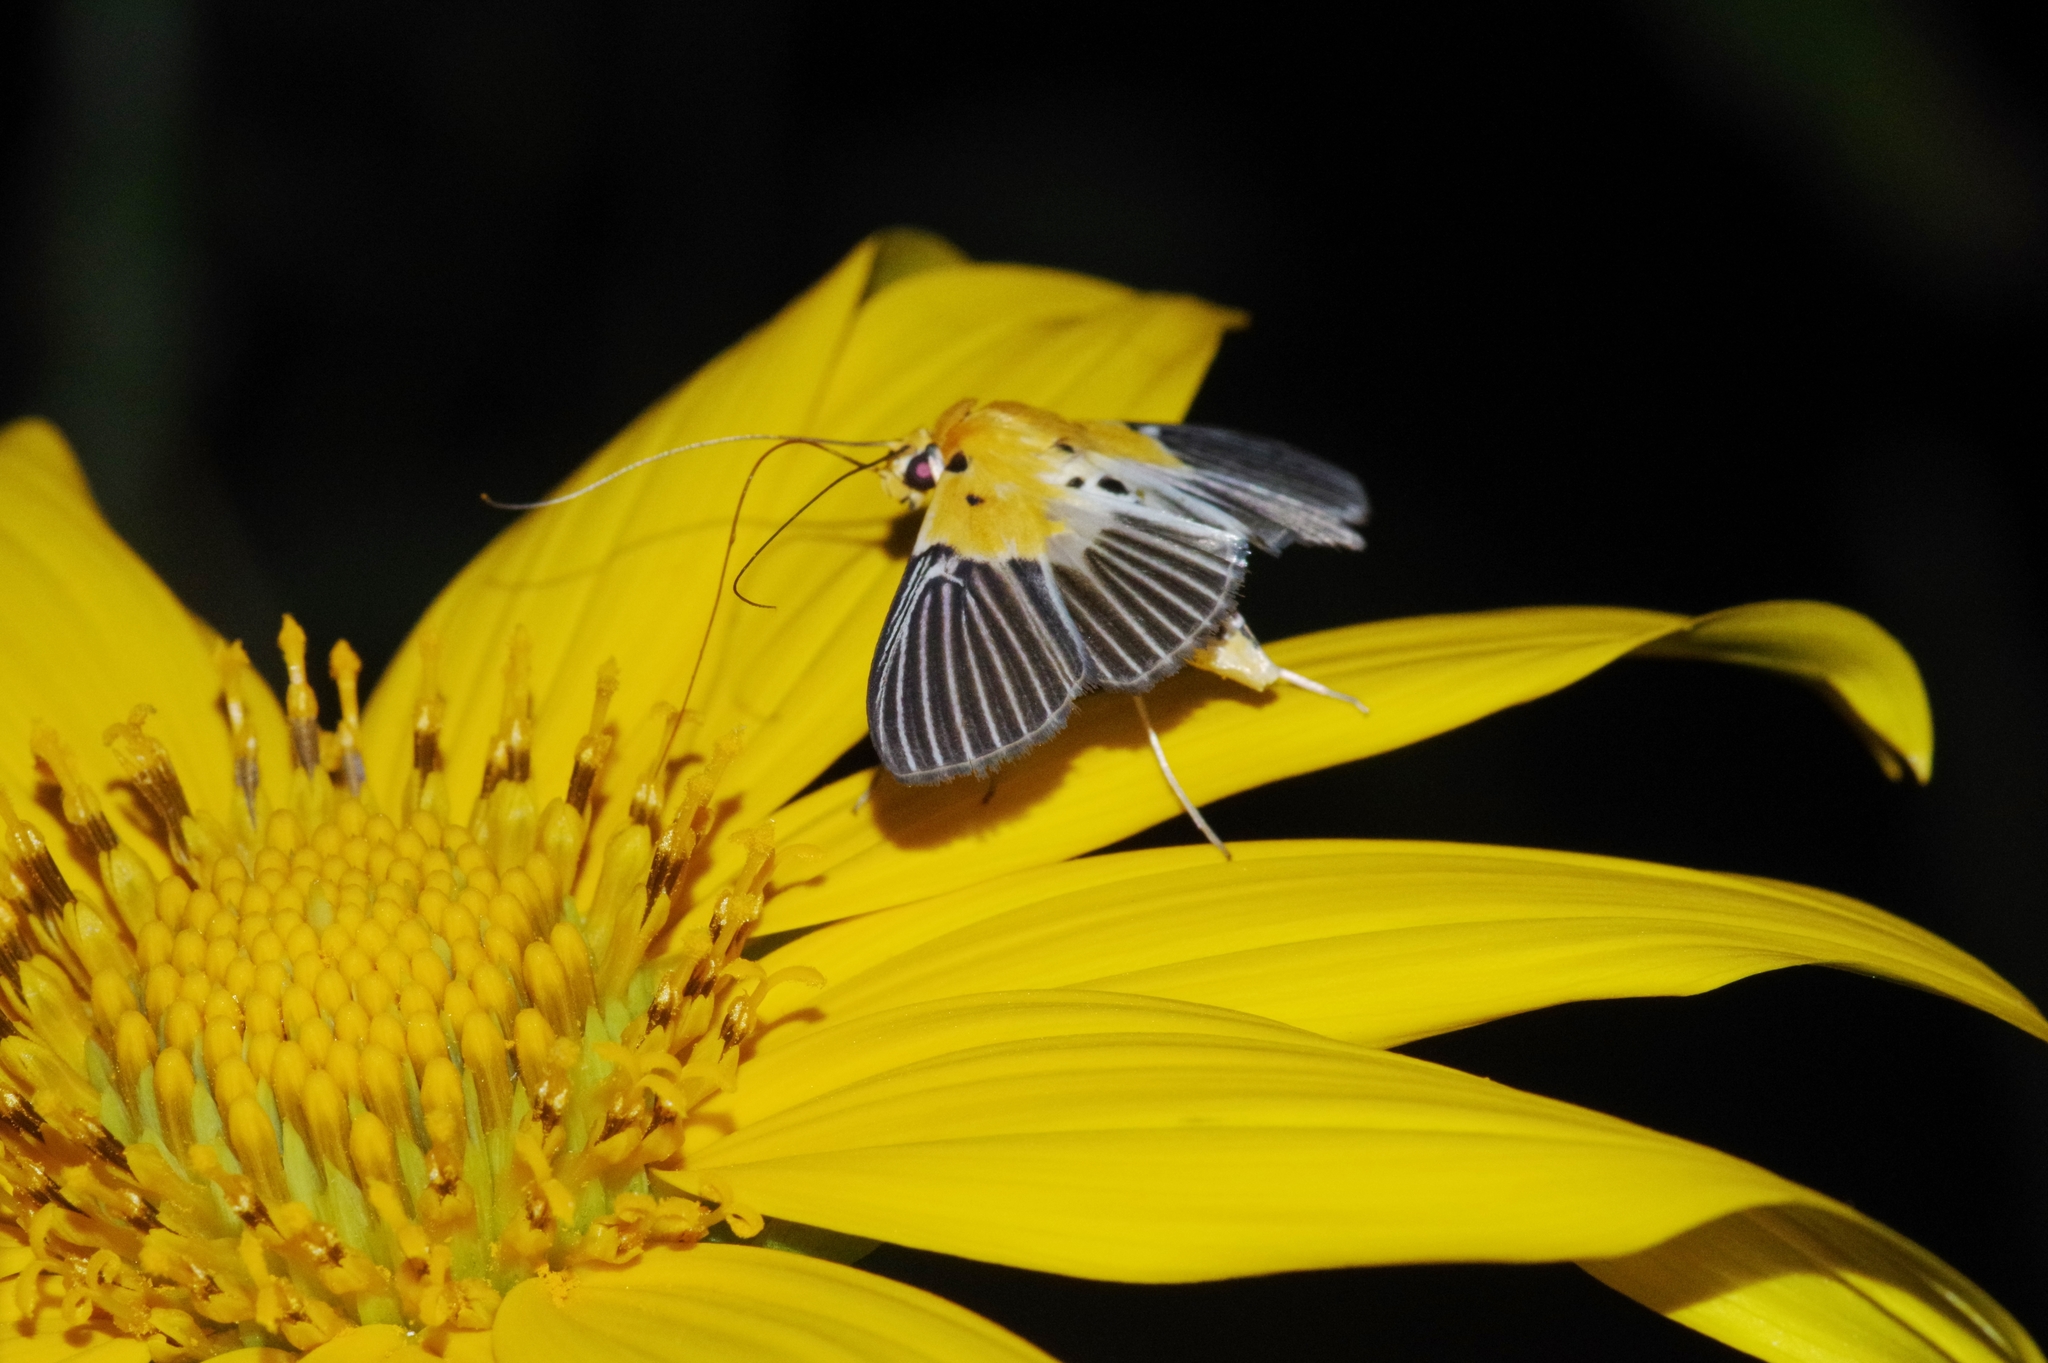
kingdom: Animalia
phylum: Arthropoda
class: Insecta
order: Lepidoptera
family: Crambidae
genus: Nevrina
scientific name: Nevrina procopia
